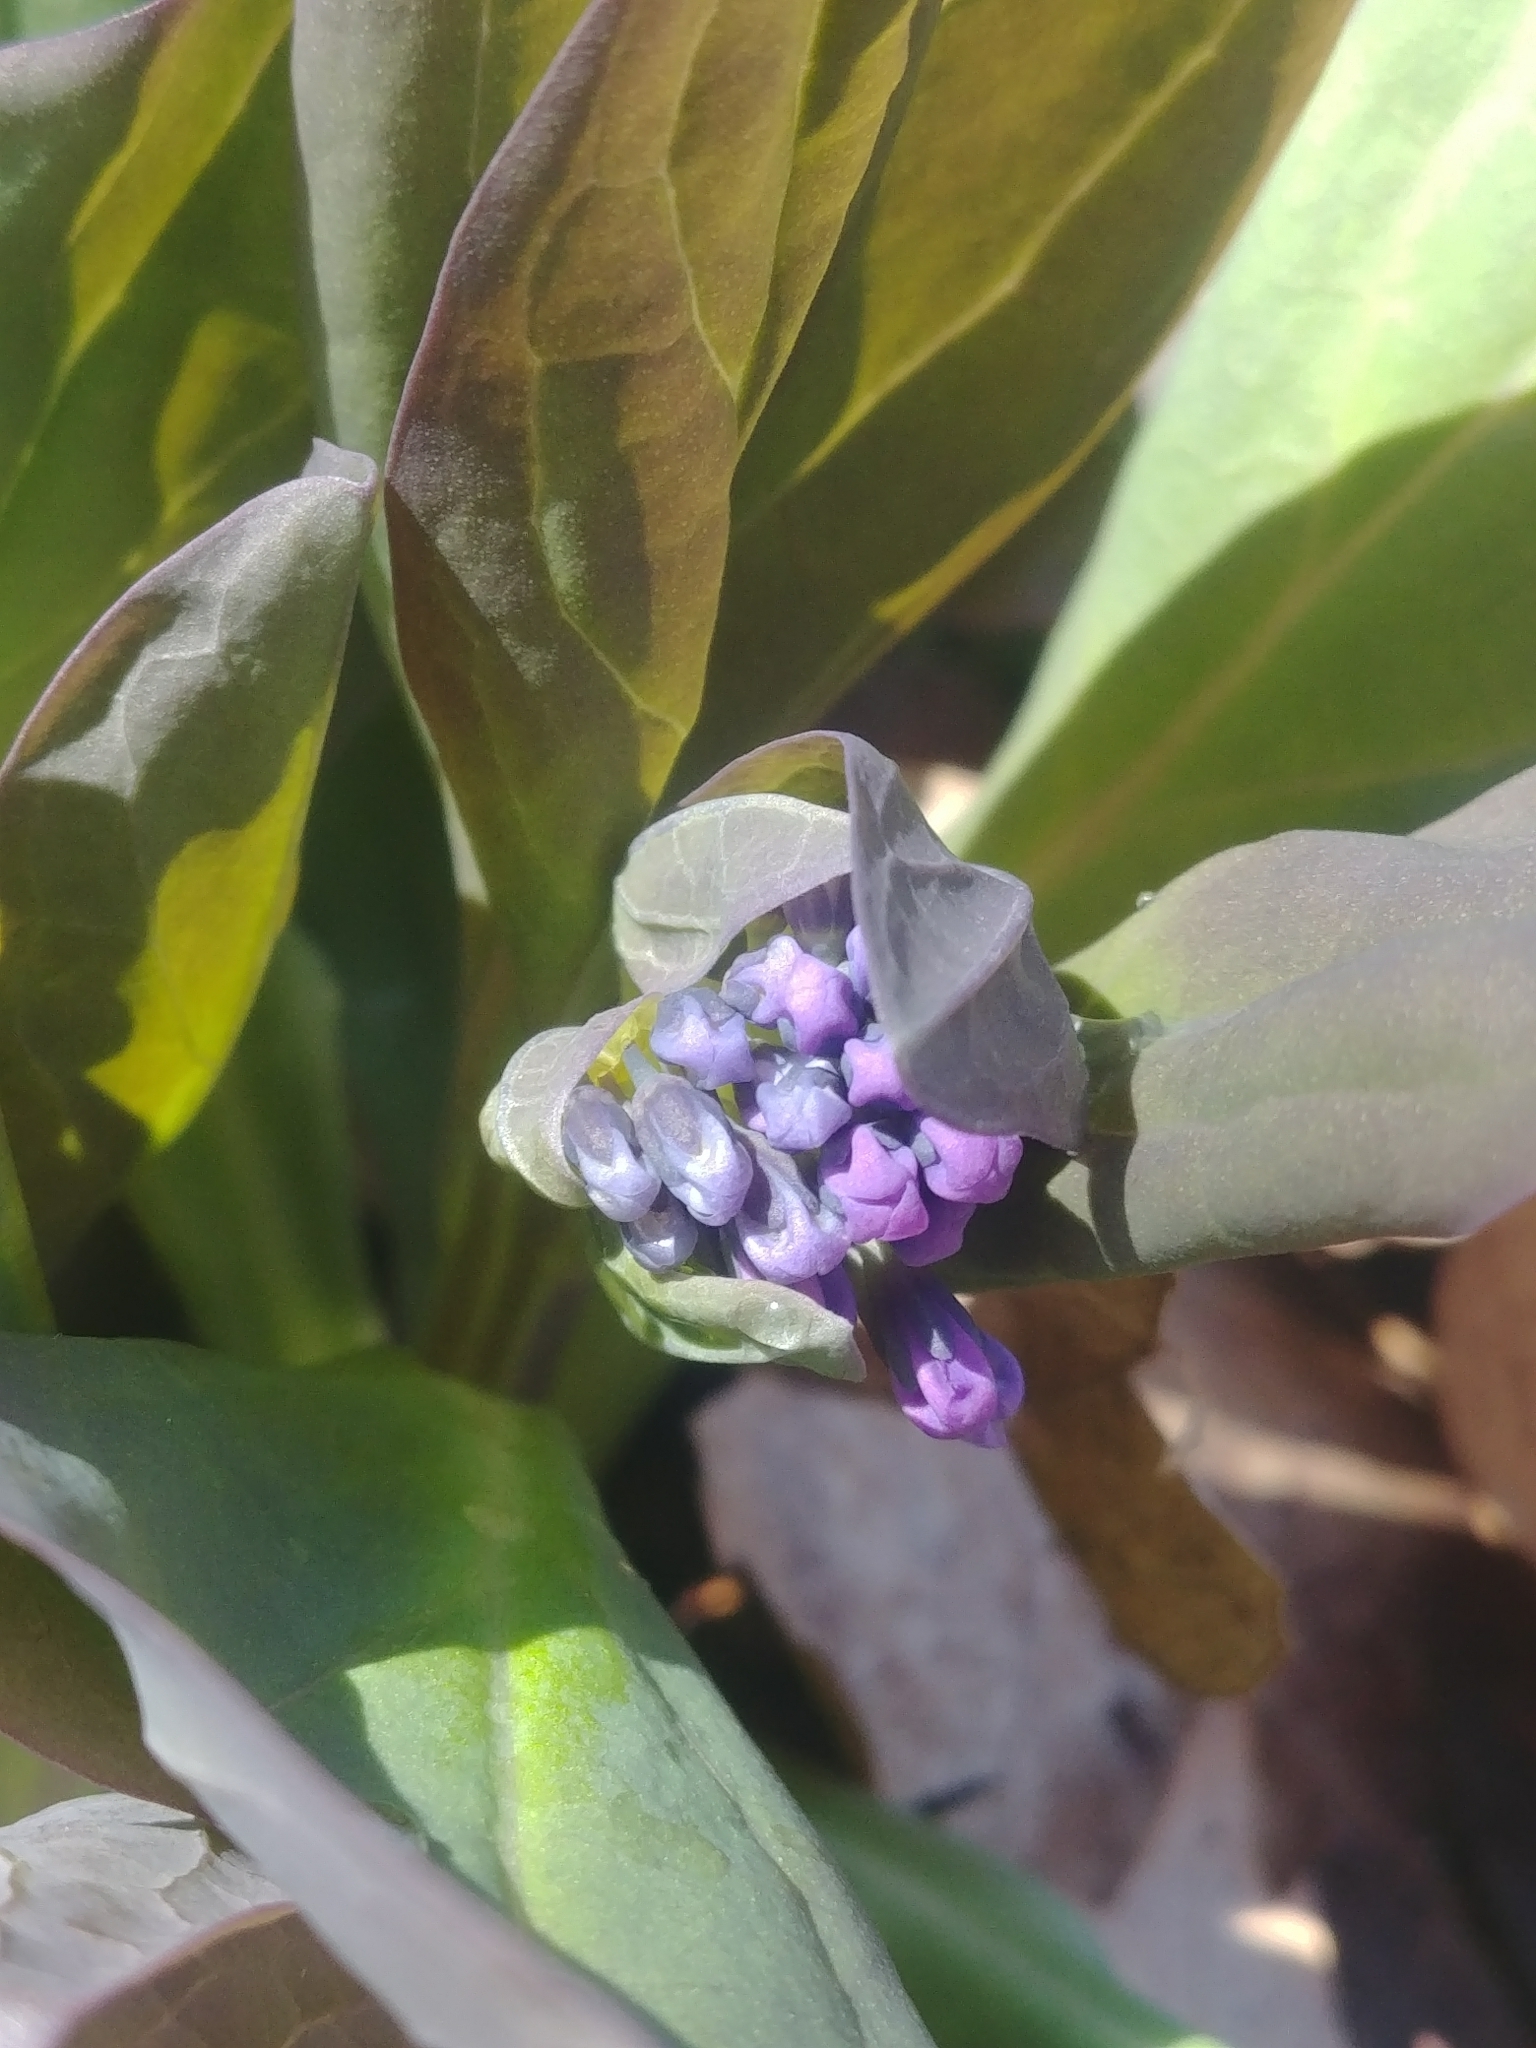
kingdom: Plantae
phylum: Tracheophyta
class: Magnoliopsida
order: Boraginales
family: Boraginaceae
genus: Mertensia
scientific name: Mertensia virginica
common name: Virginia bluebells
